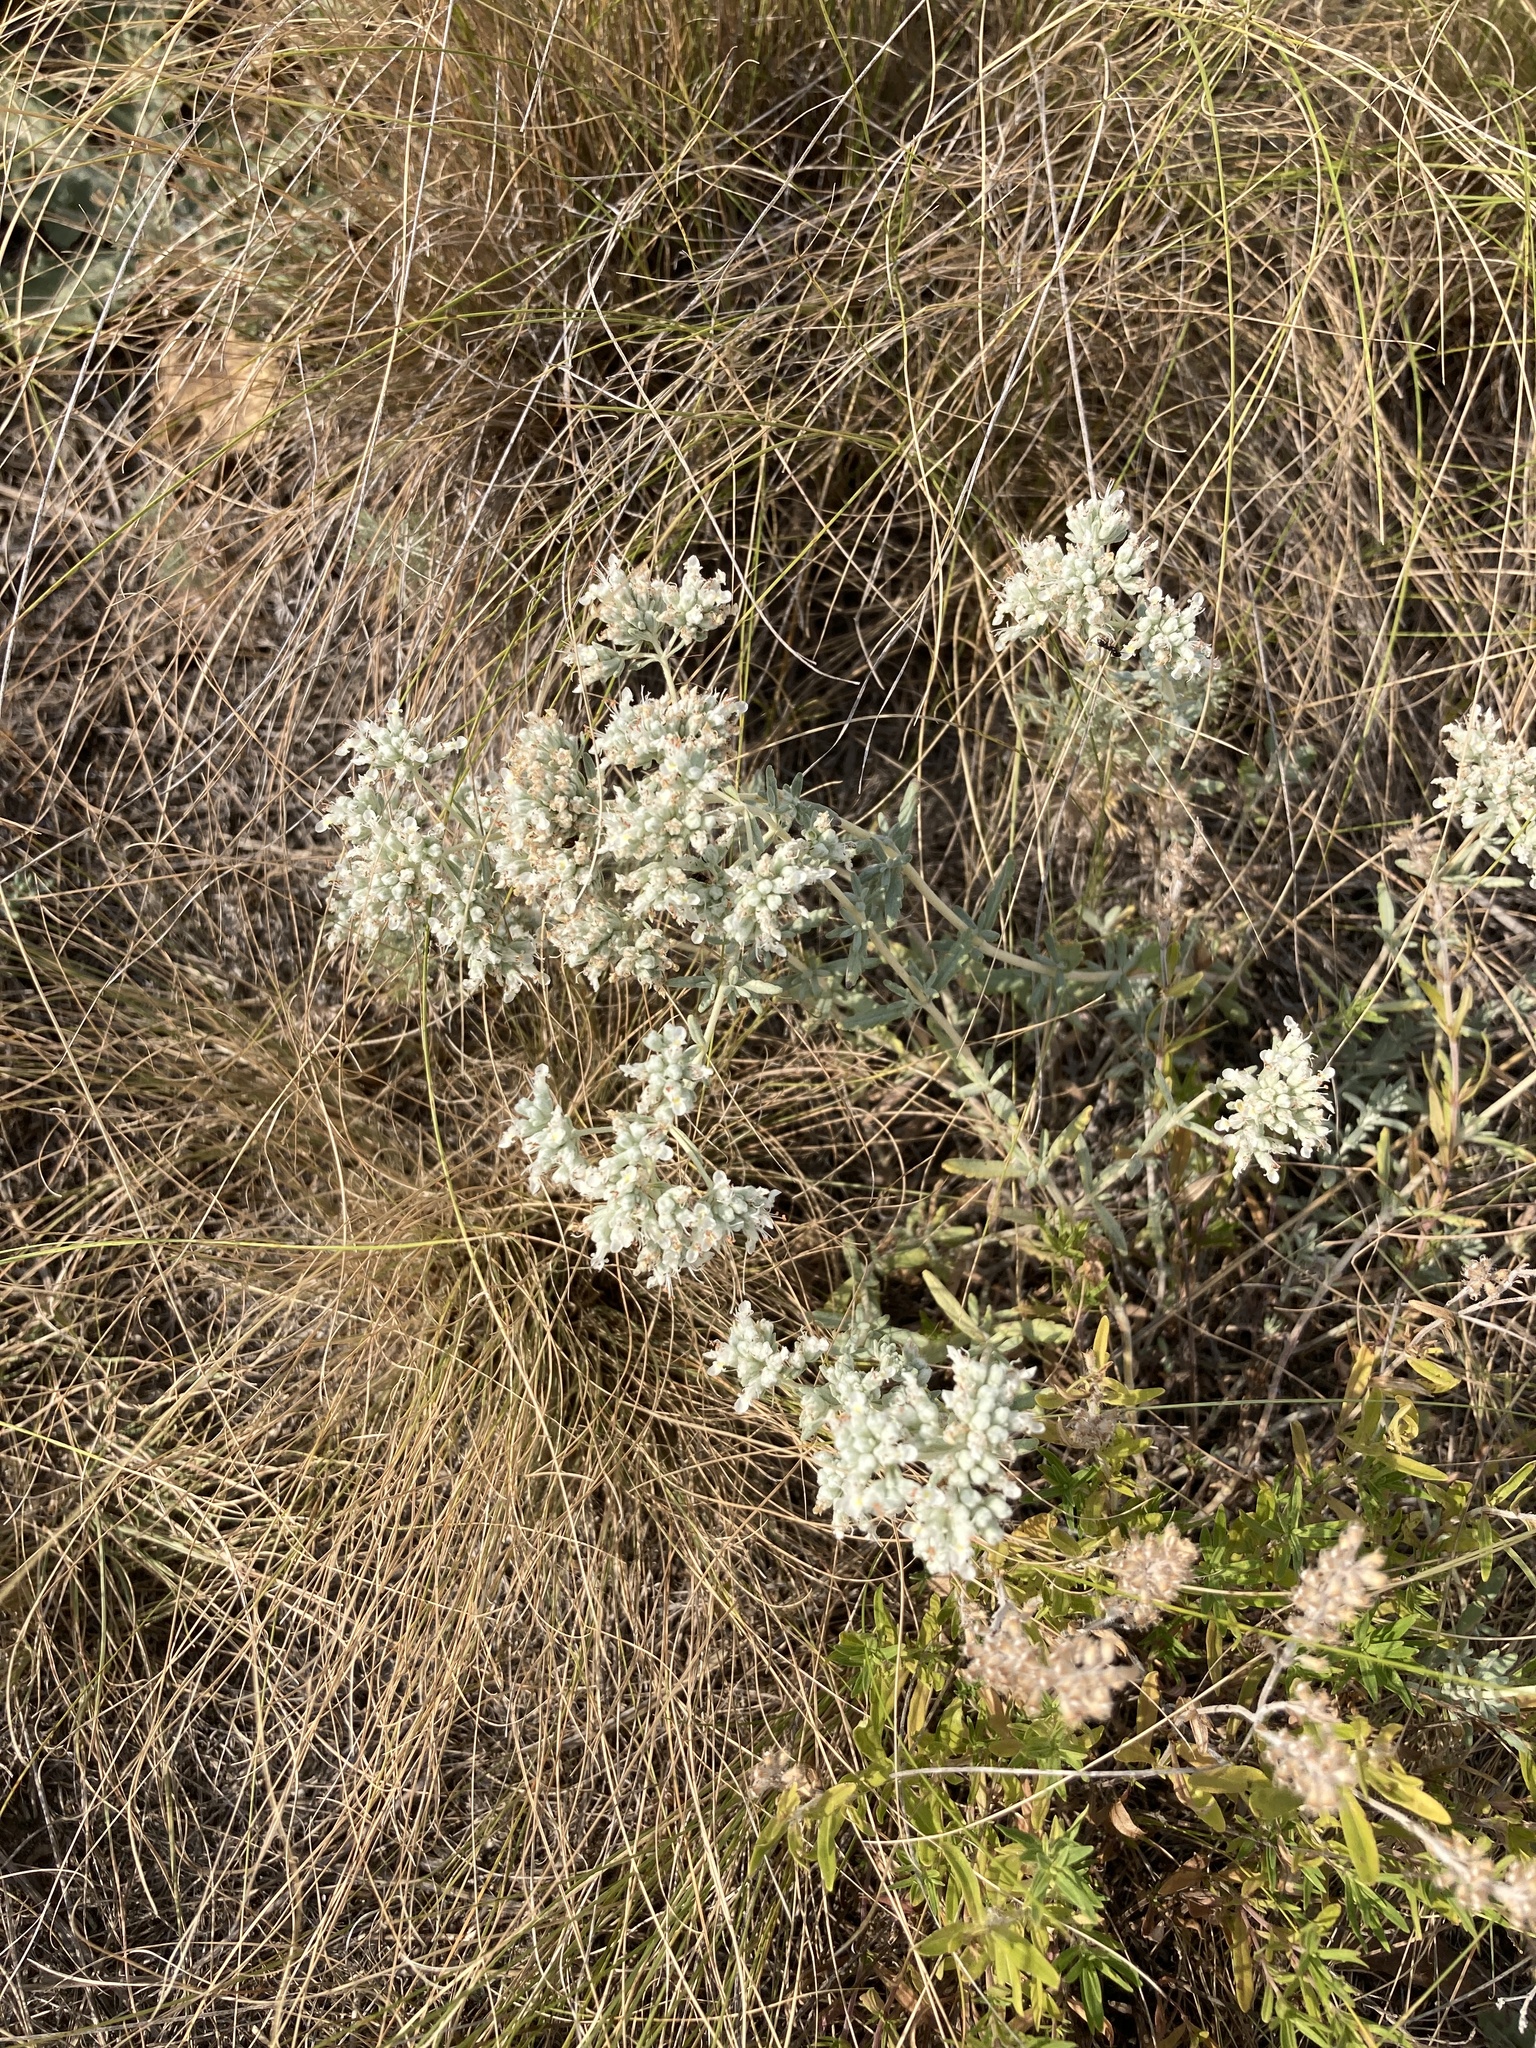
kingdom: Plantae
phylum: Tracheophyta
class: Magnoliopsida
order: Lamiales
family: Lamiaceae
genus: Teucrium
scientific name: Teucrium polium
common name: Poley
